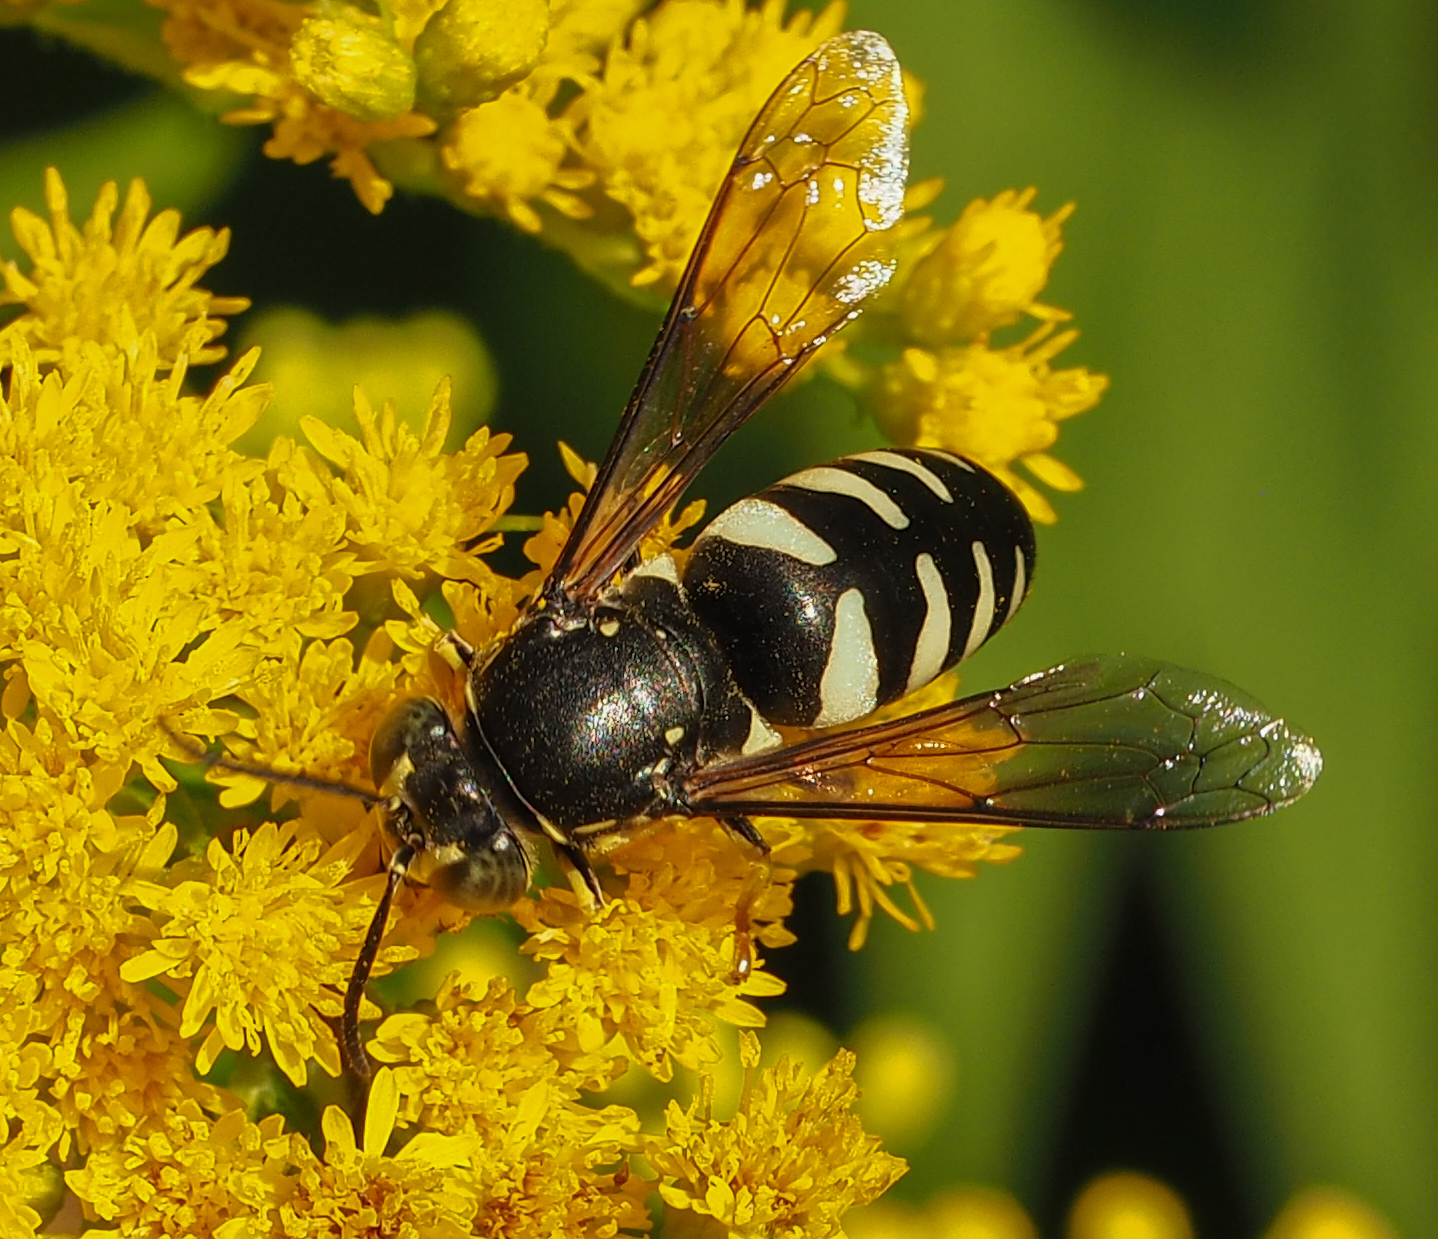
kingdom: Animalia
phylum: Arthropoda
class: Insecta
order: Hymenoptera
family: Crabronidae
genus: Bicyrtes
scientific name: Bicyrtes quadrifasciatus
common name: Four-banded stink bug hunter wasp
